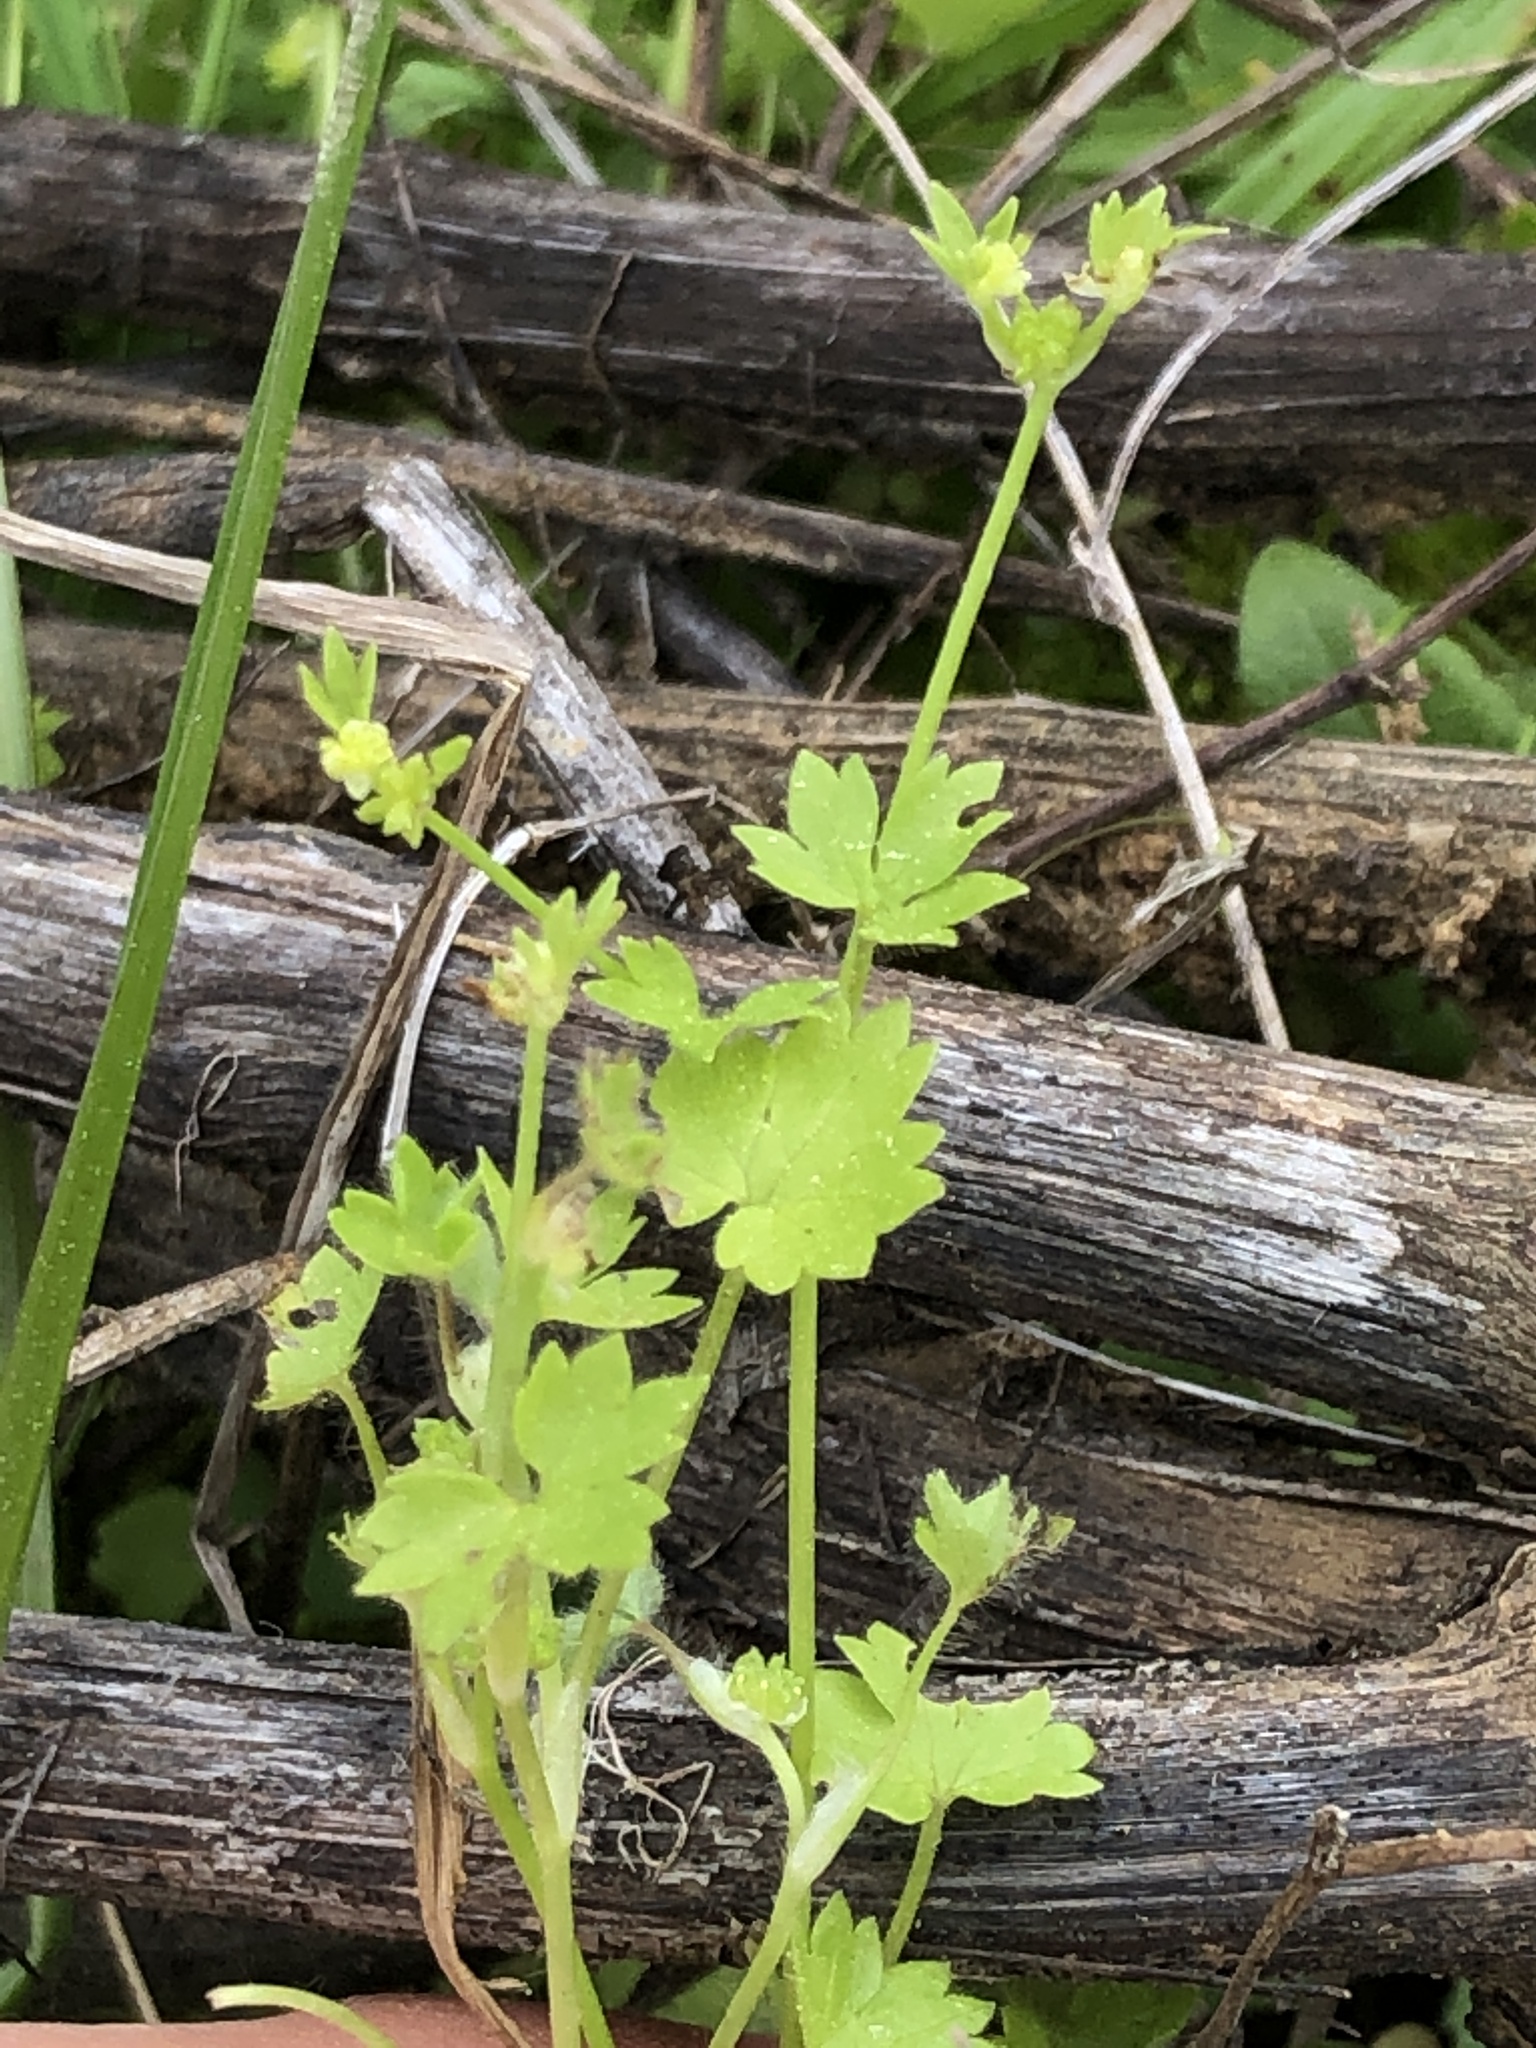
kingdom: Plantae
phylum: Tracheophyta
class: Magnoliopsida
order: Ranunculales
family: Ranunculaceae
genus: Ranunculus
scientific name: Ranunculus platensis
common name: Prairie buttercup
